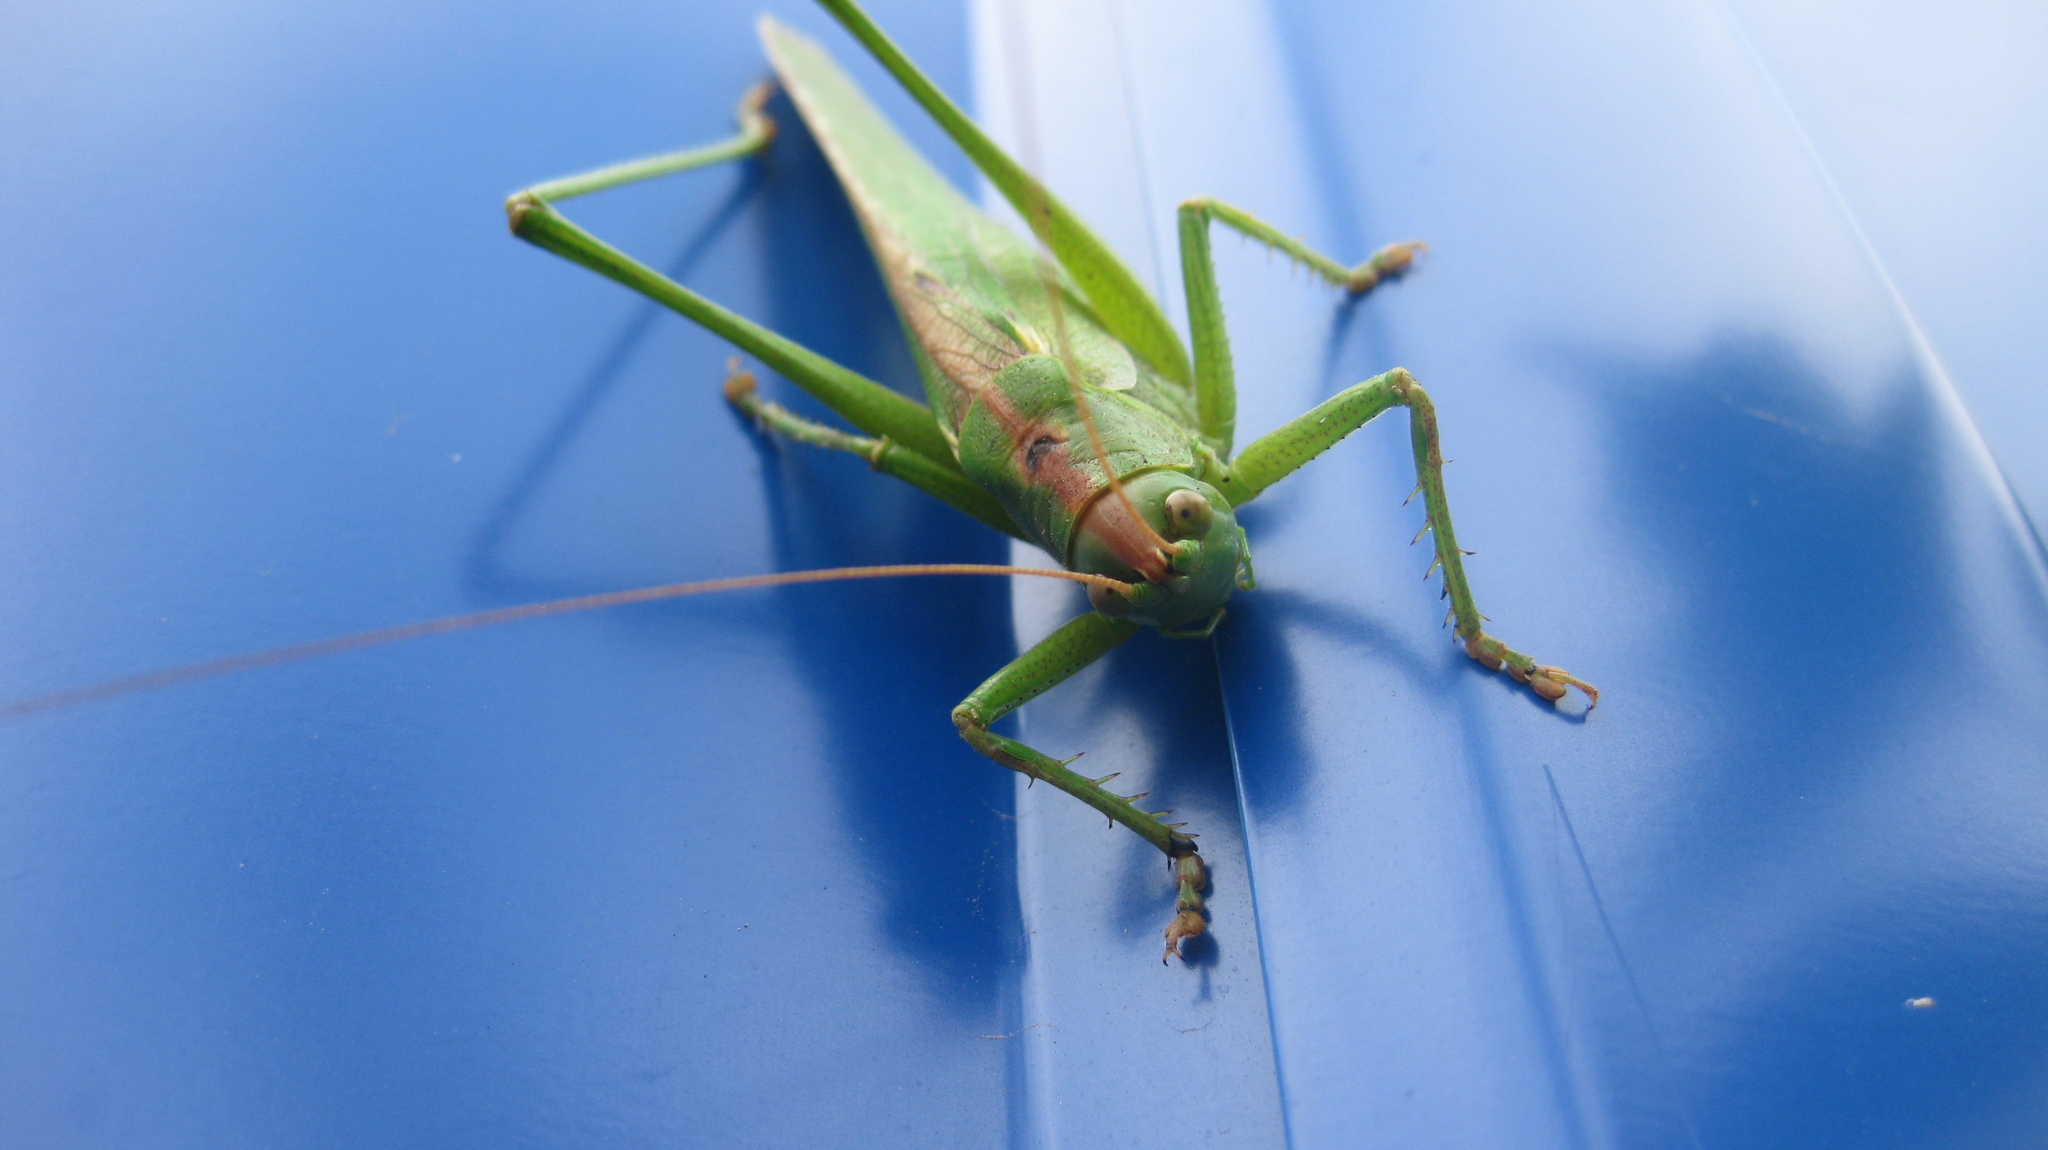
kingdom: Animalia
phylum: Arthropoda
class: Insecta
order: Orthoptera
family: Tettigoniidae
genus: Tettigonia
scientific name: Tettigonia viridissima
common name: Great green bush-cricket
